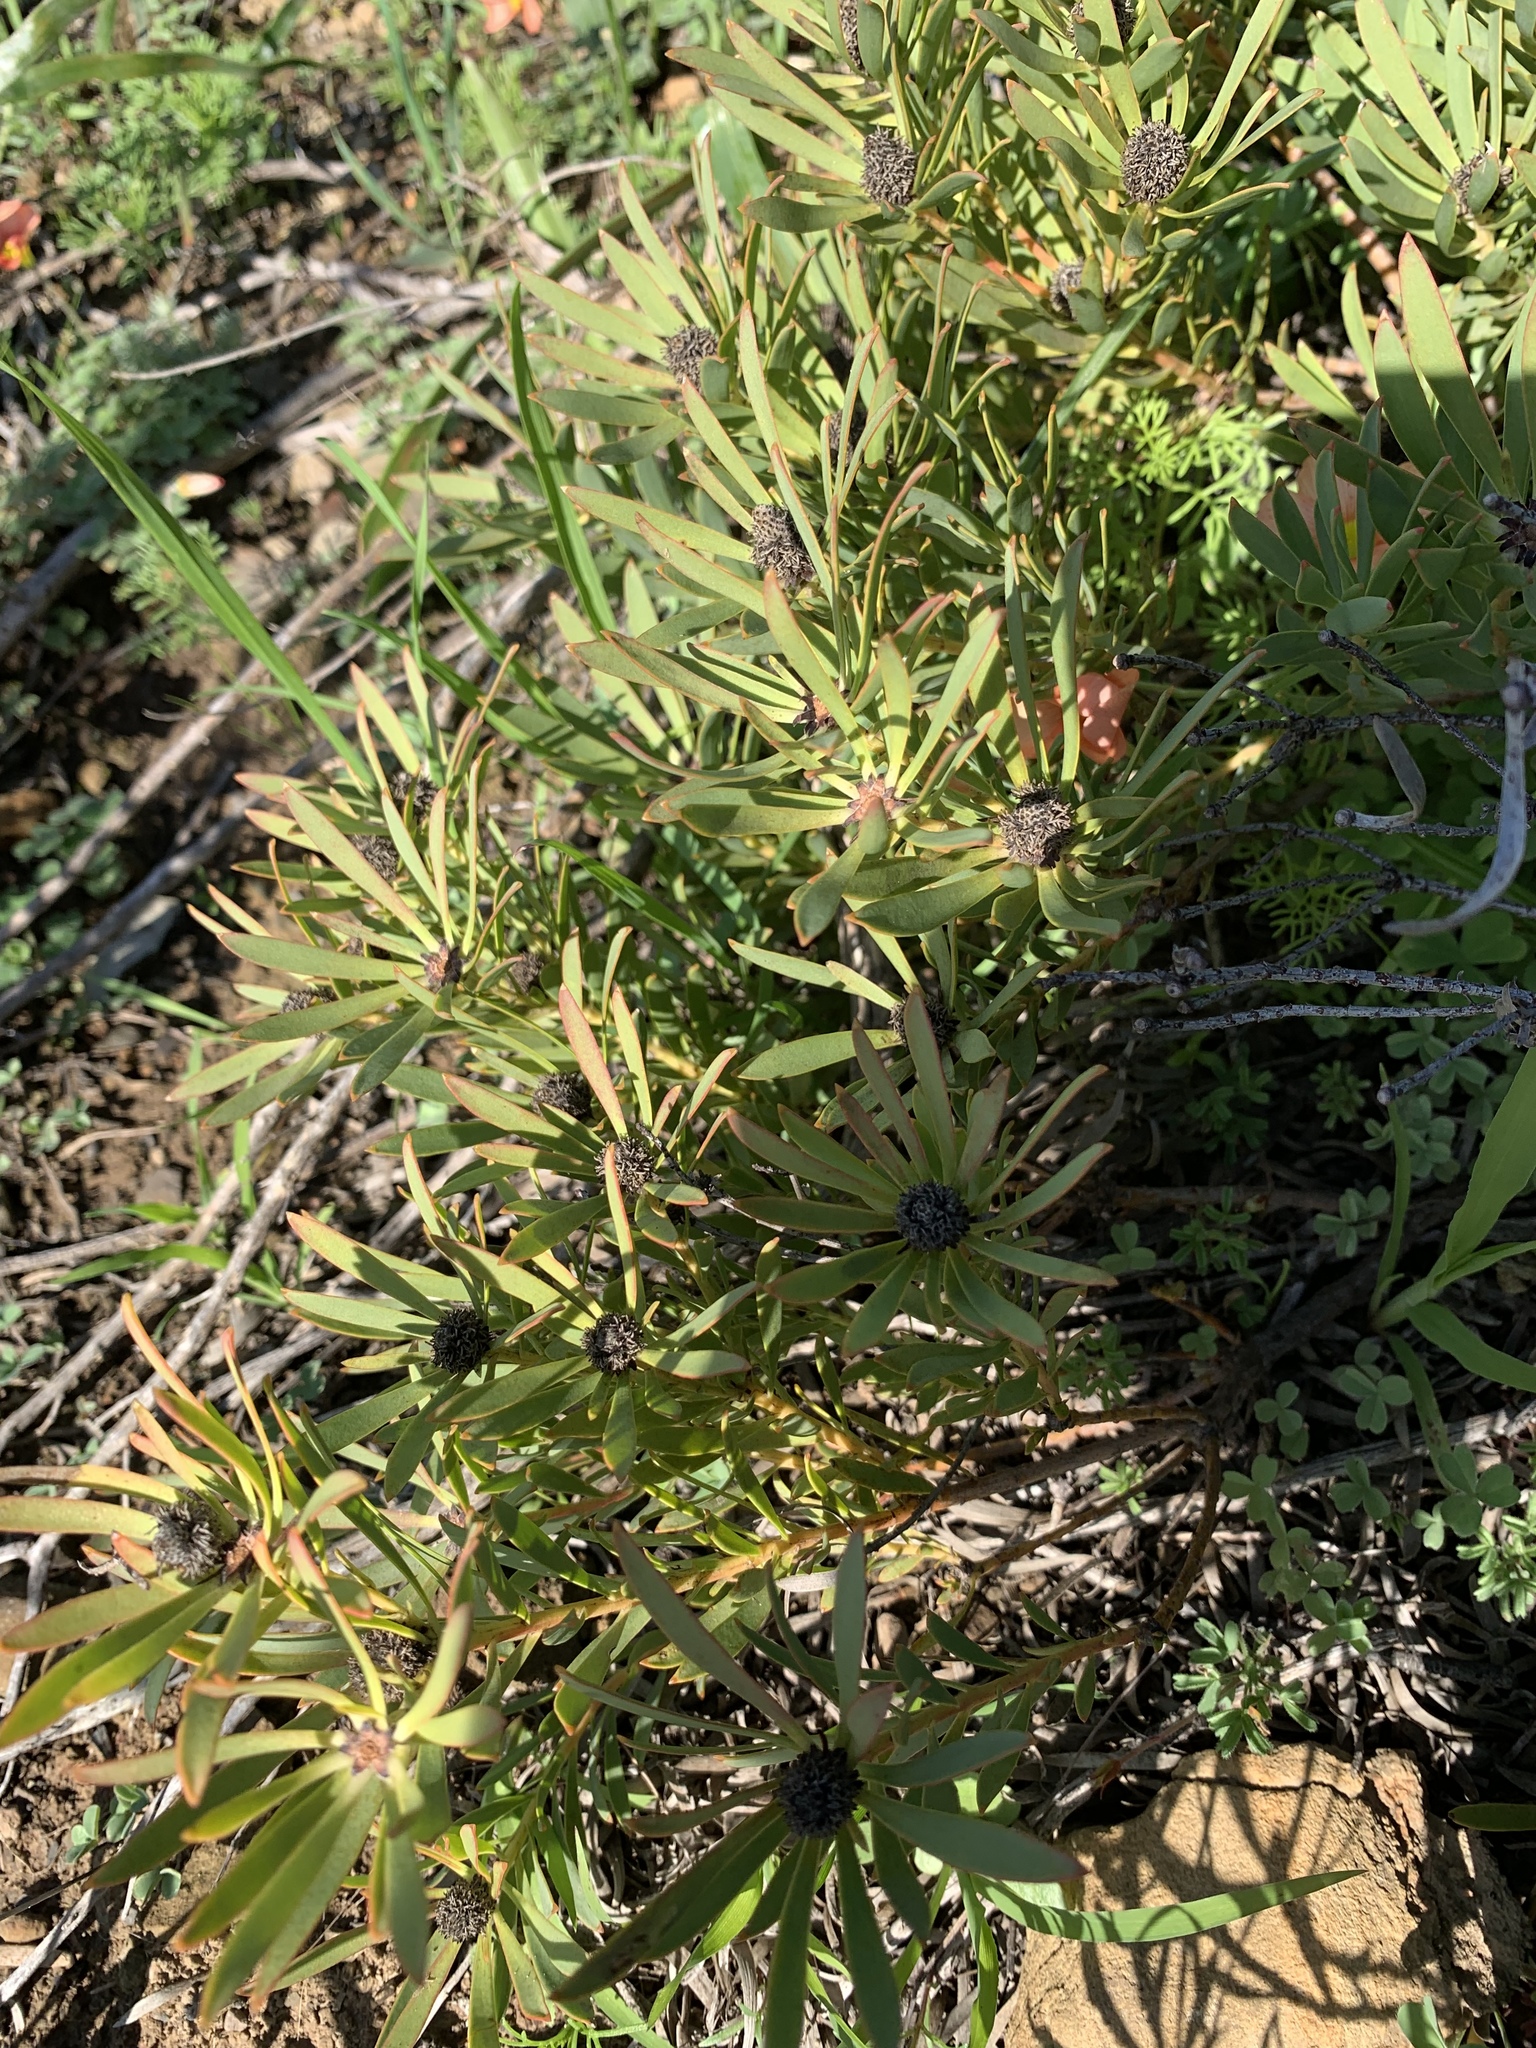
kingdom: Plantae
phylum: Tracheophyta
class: Magnoliopsida
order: Proteales
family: Proteaceae
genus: Leucadendron
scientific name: Leucadendron salignum
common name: Common sunshine conebush
